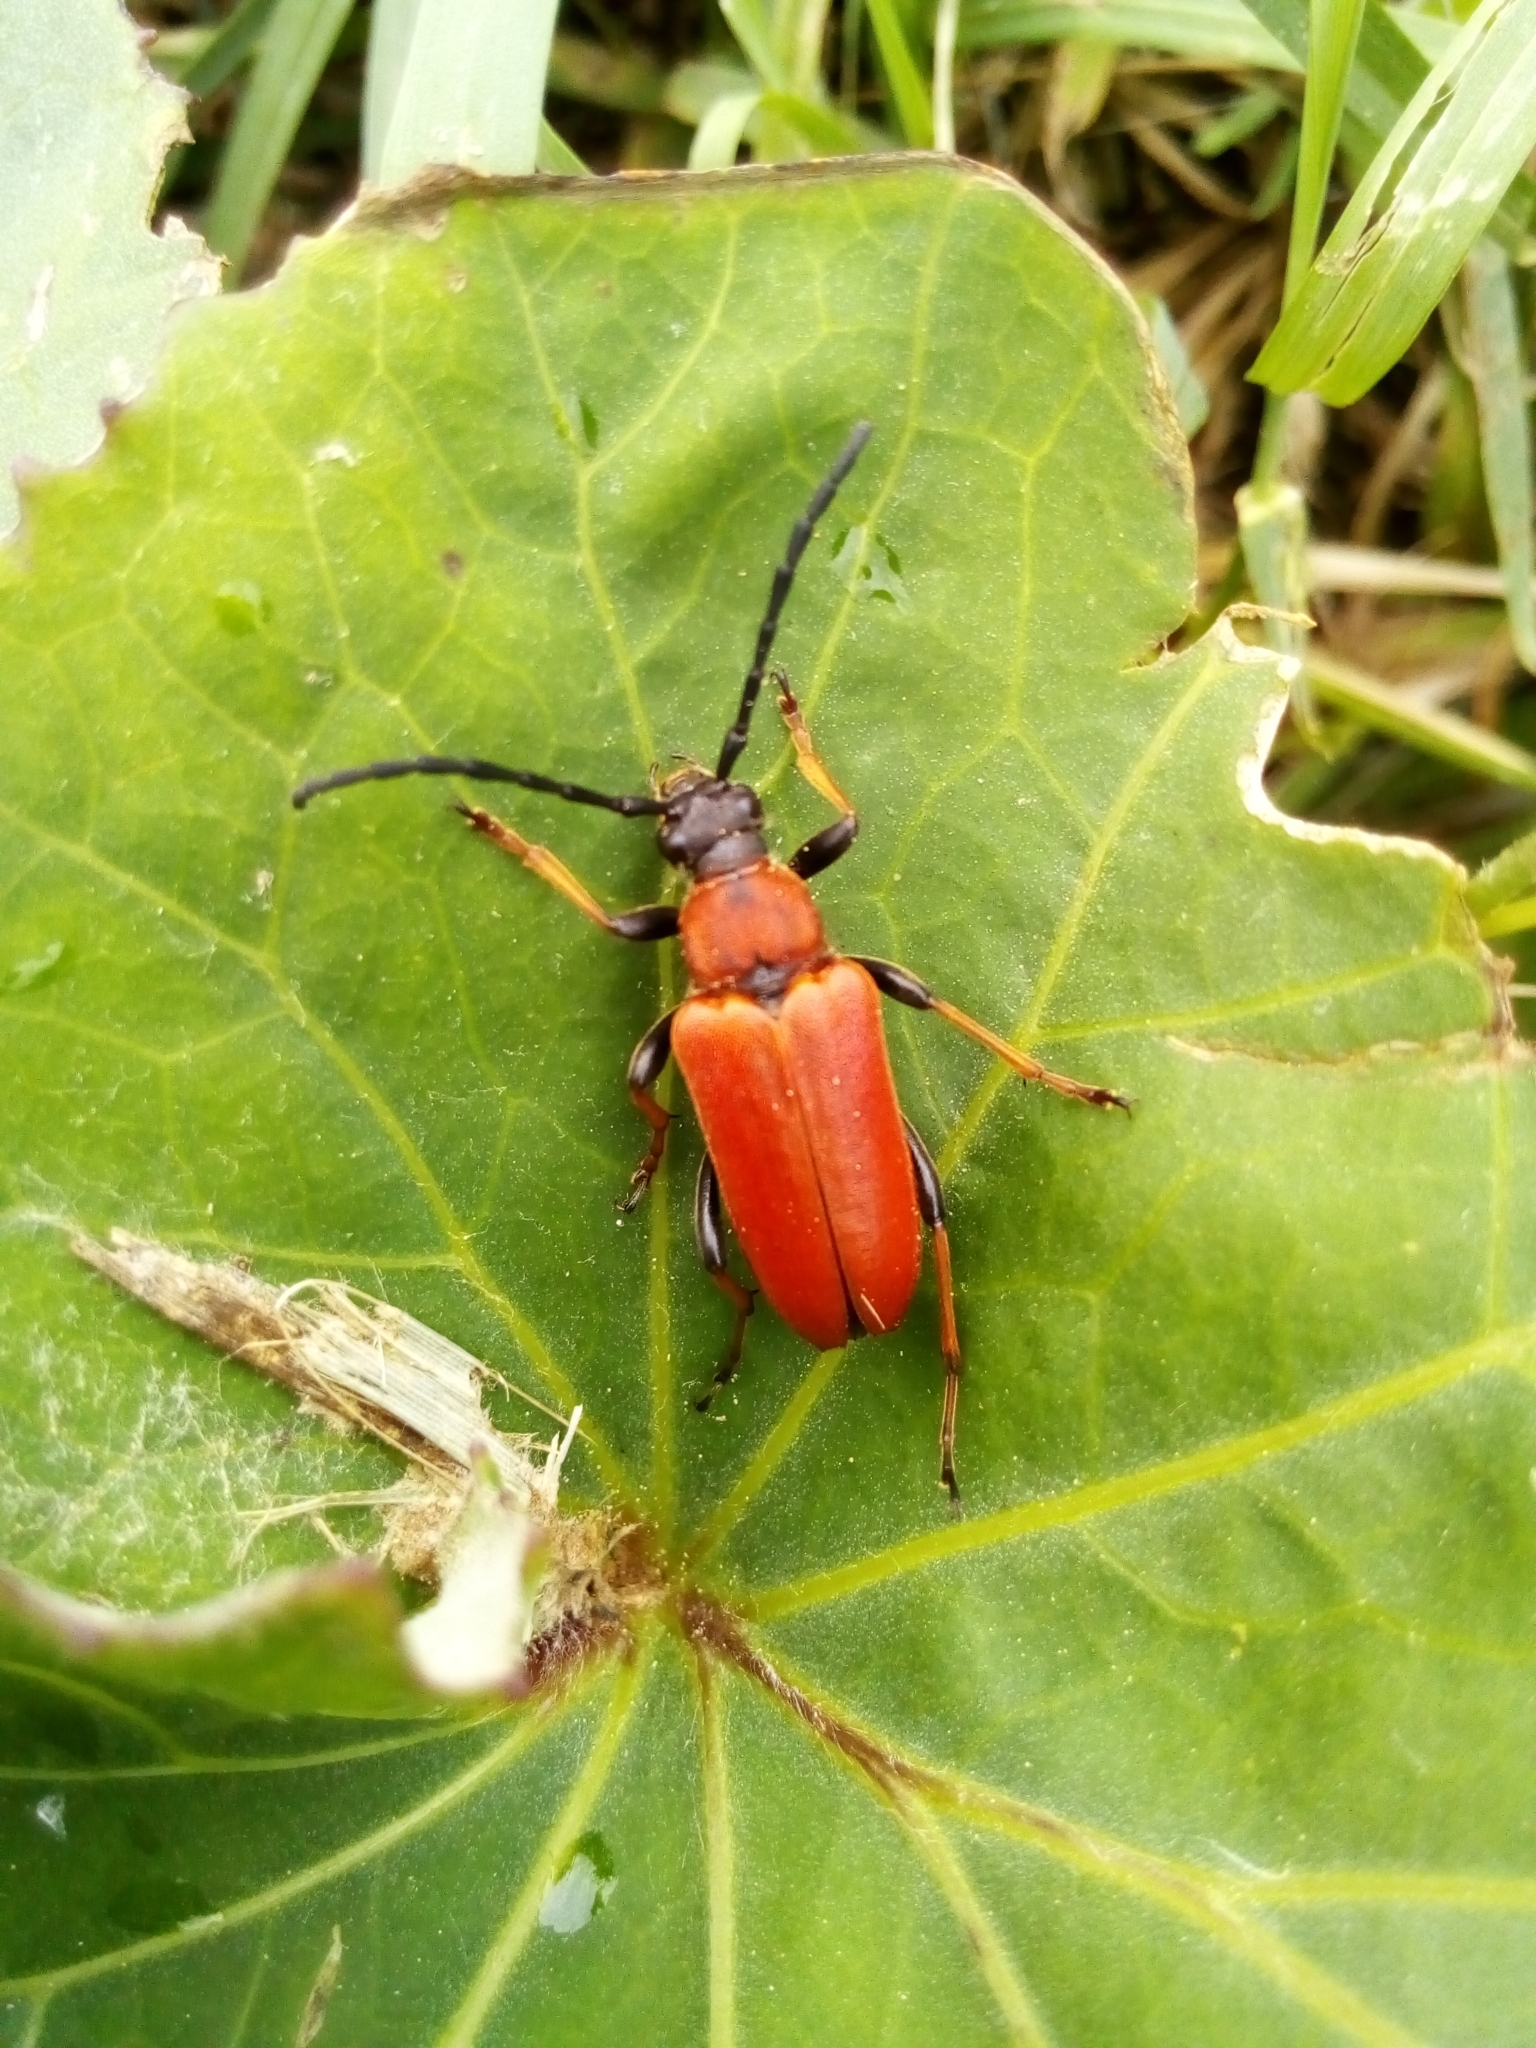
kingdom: Animalia
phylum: Arthropoda
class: Insecta
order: Coleoptera
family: Cerambycidae
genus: Stictoleptura
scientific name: Stictoleptura rubra
